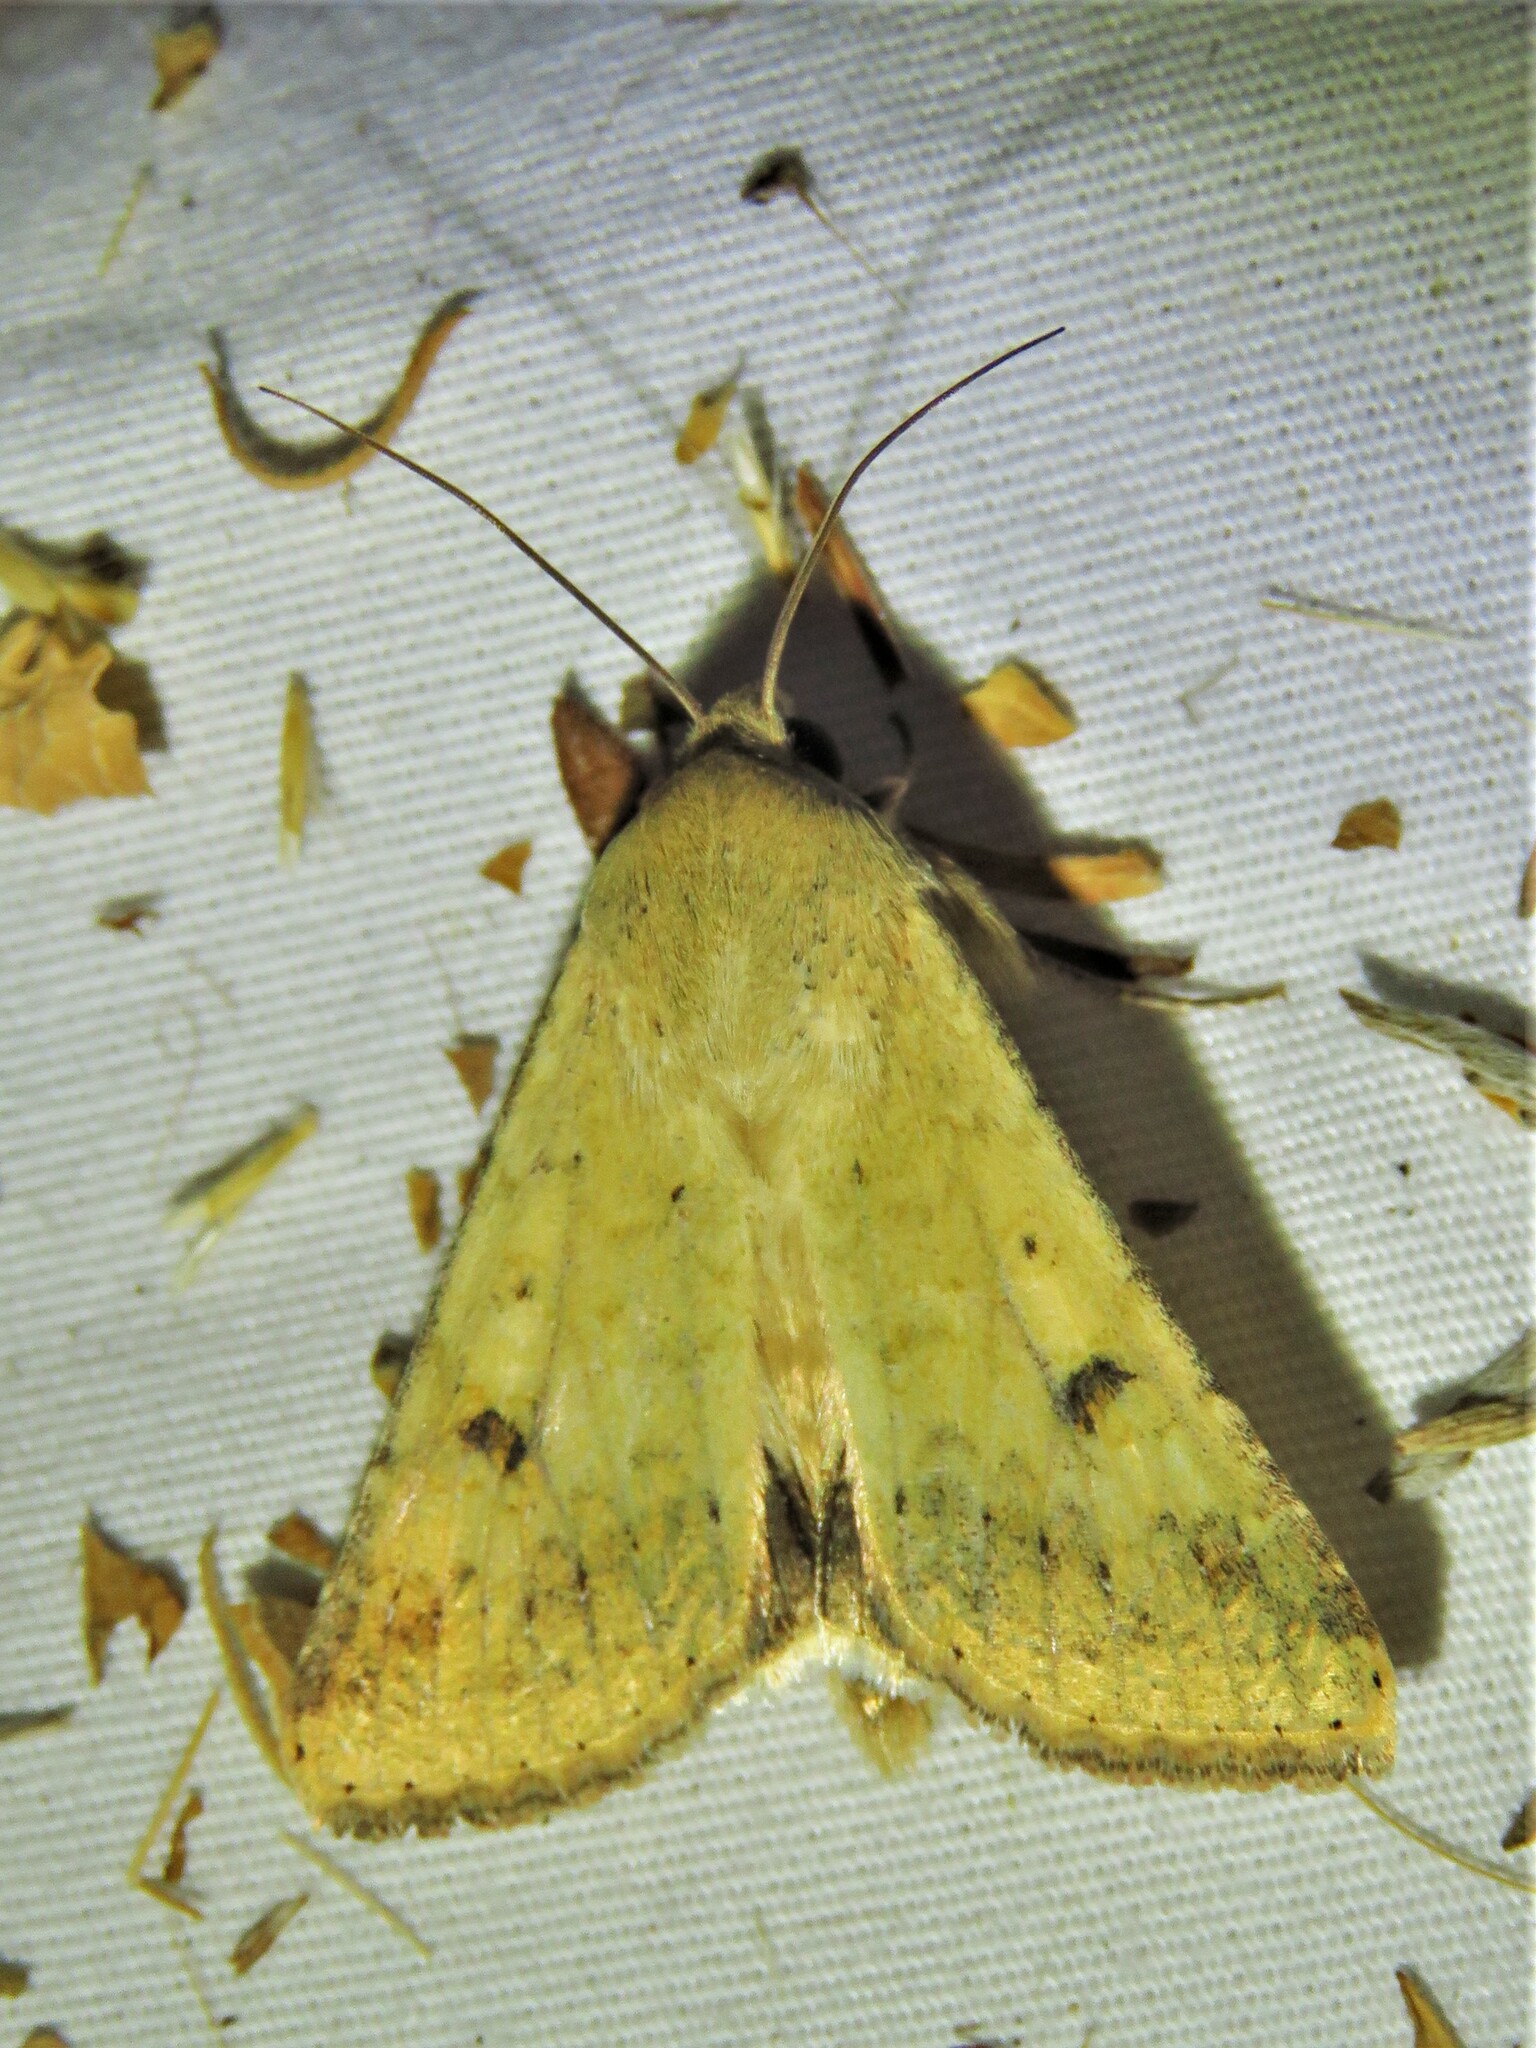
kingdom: Animalia
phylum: Arthropoda
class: Insecta
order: Lepidoptera
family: Noctuidae
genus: Helicoverpa
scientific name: Helicoverpa zea
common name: Bollworm
